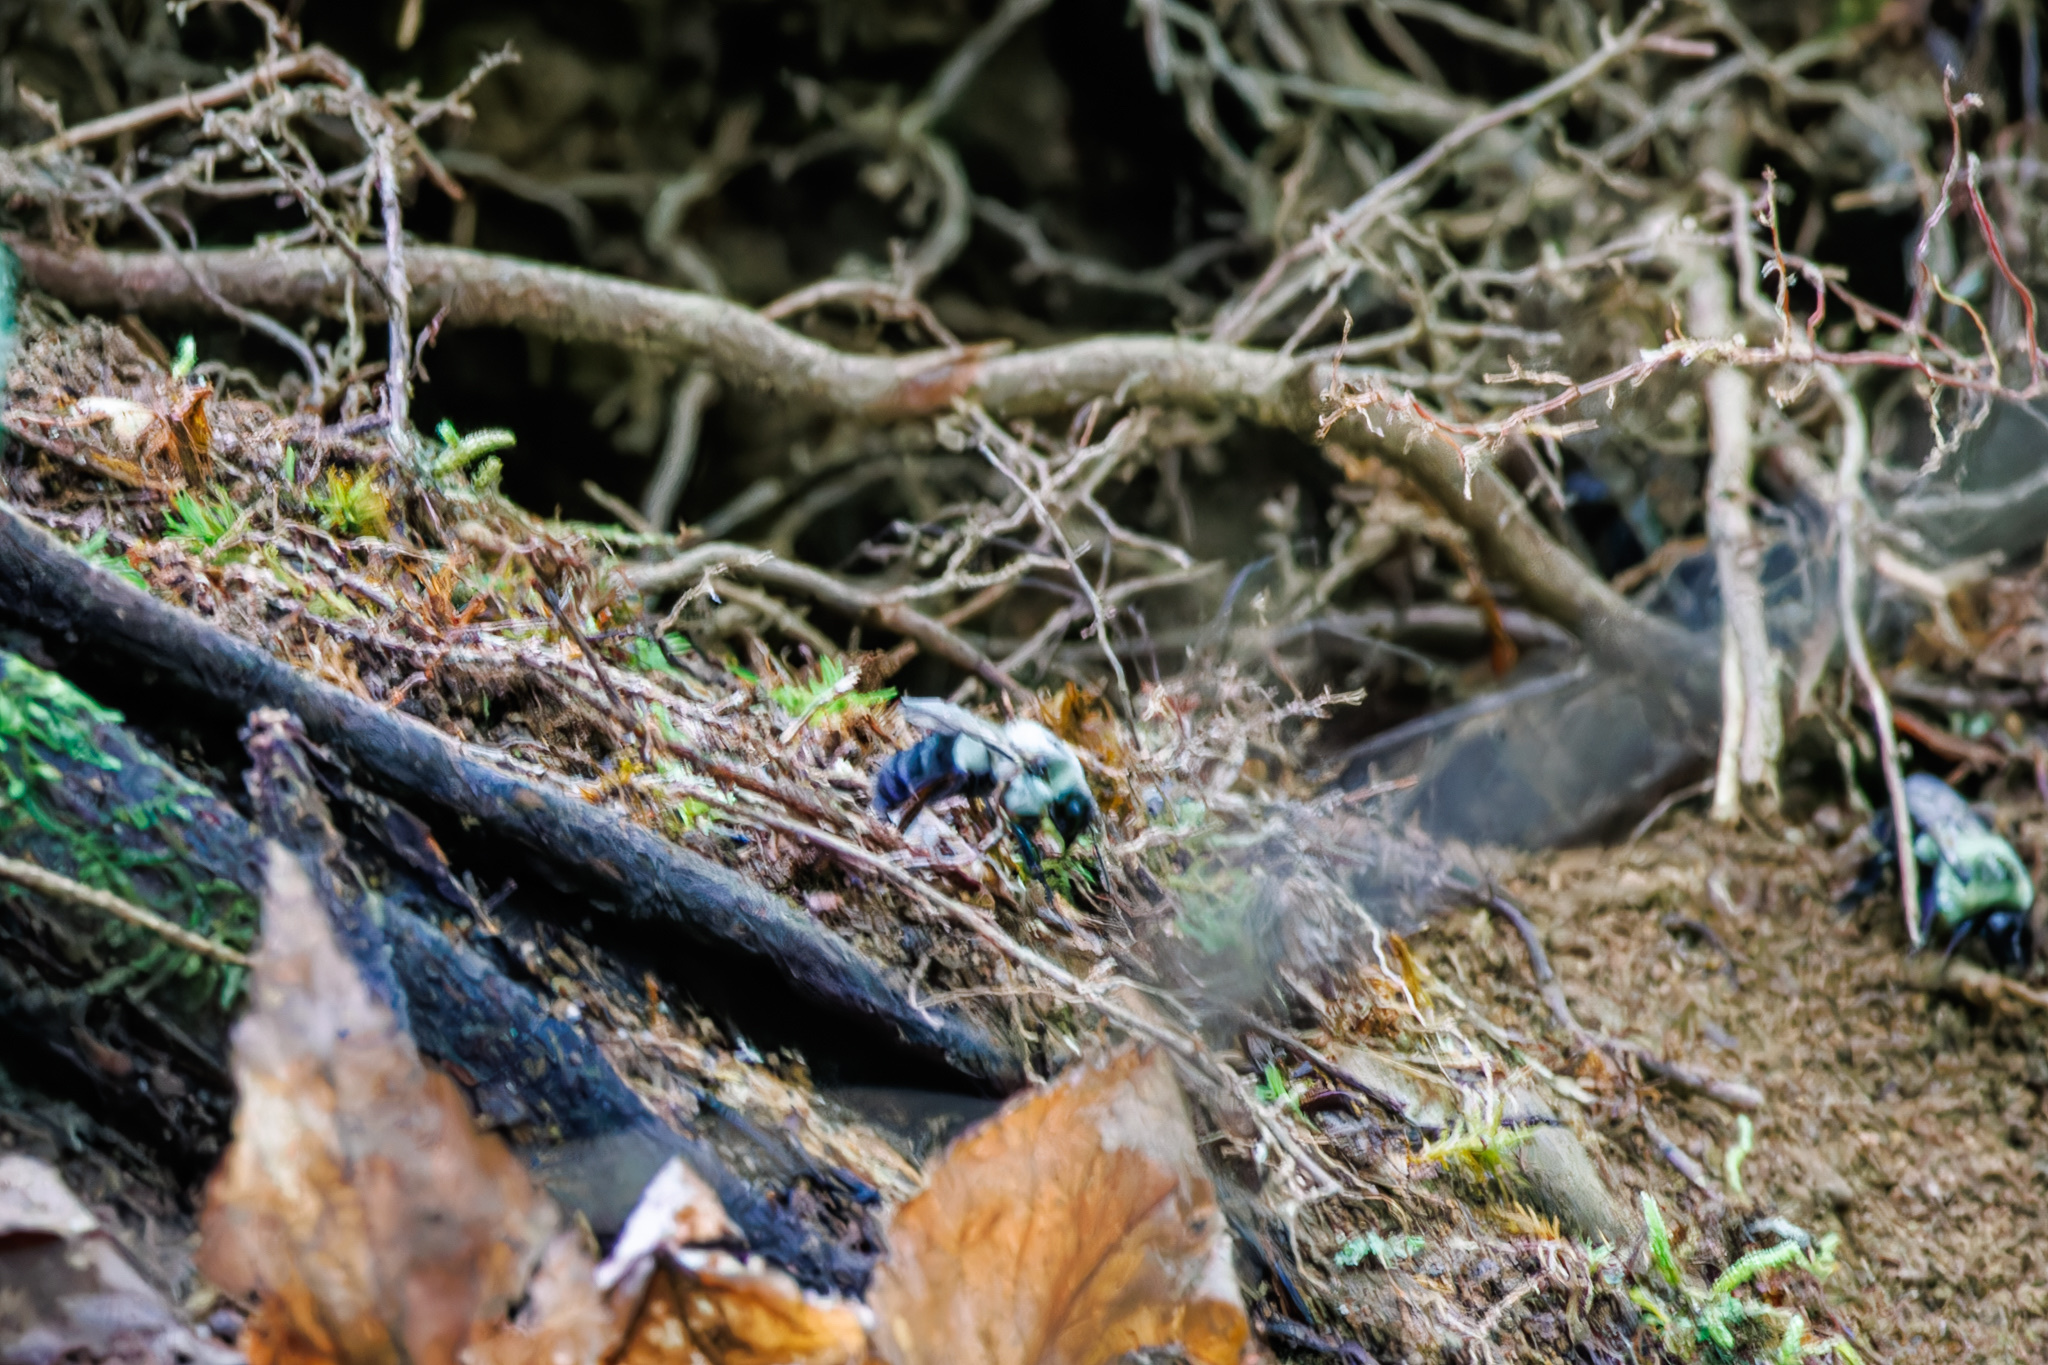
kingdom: Animalia
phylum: Arthropoda
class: Insecta
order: Hymenoptera
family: Apidae
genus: Bombus
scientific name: Bombus impatiens
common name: Common eastern bumble bee
